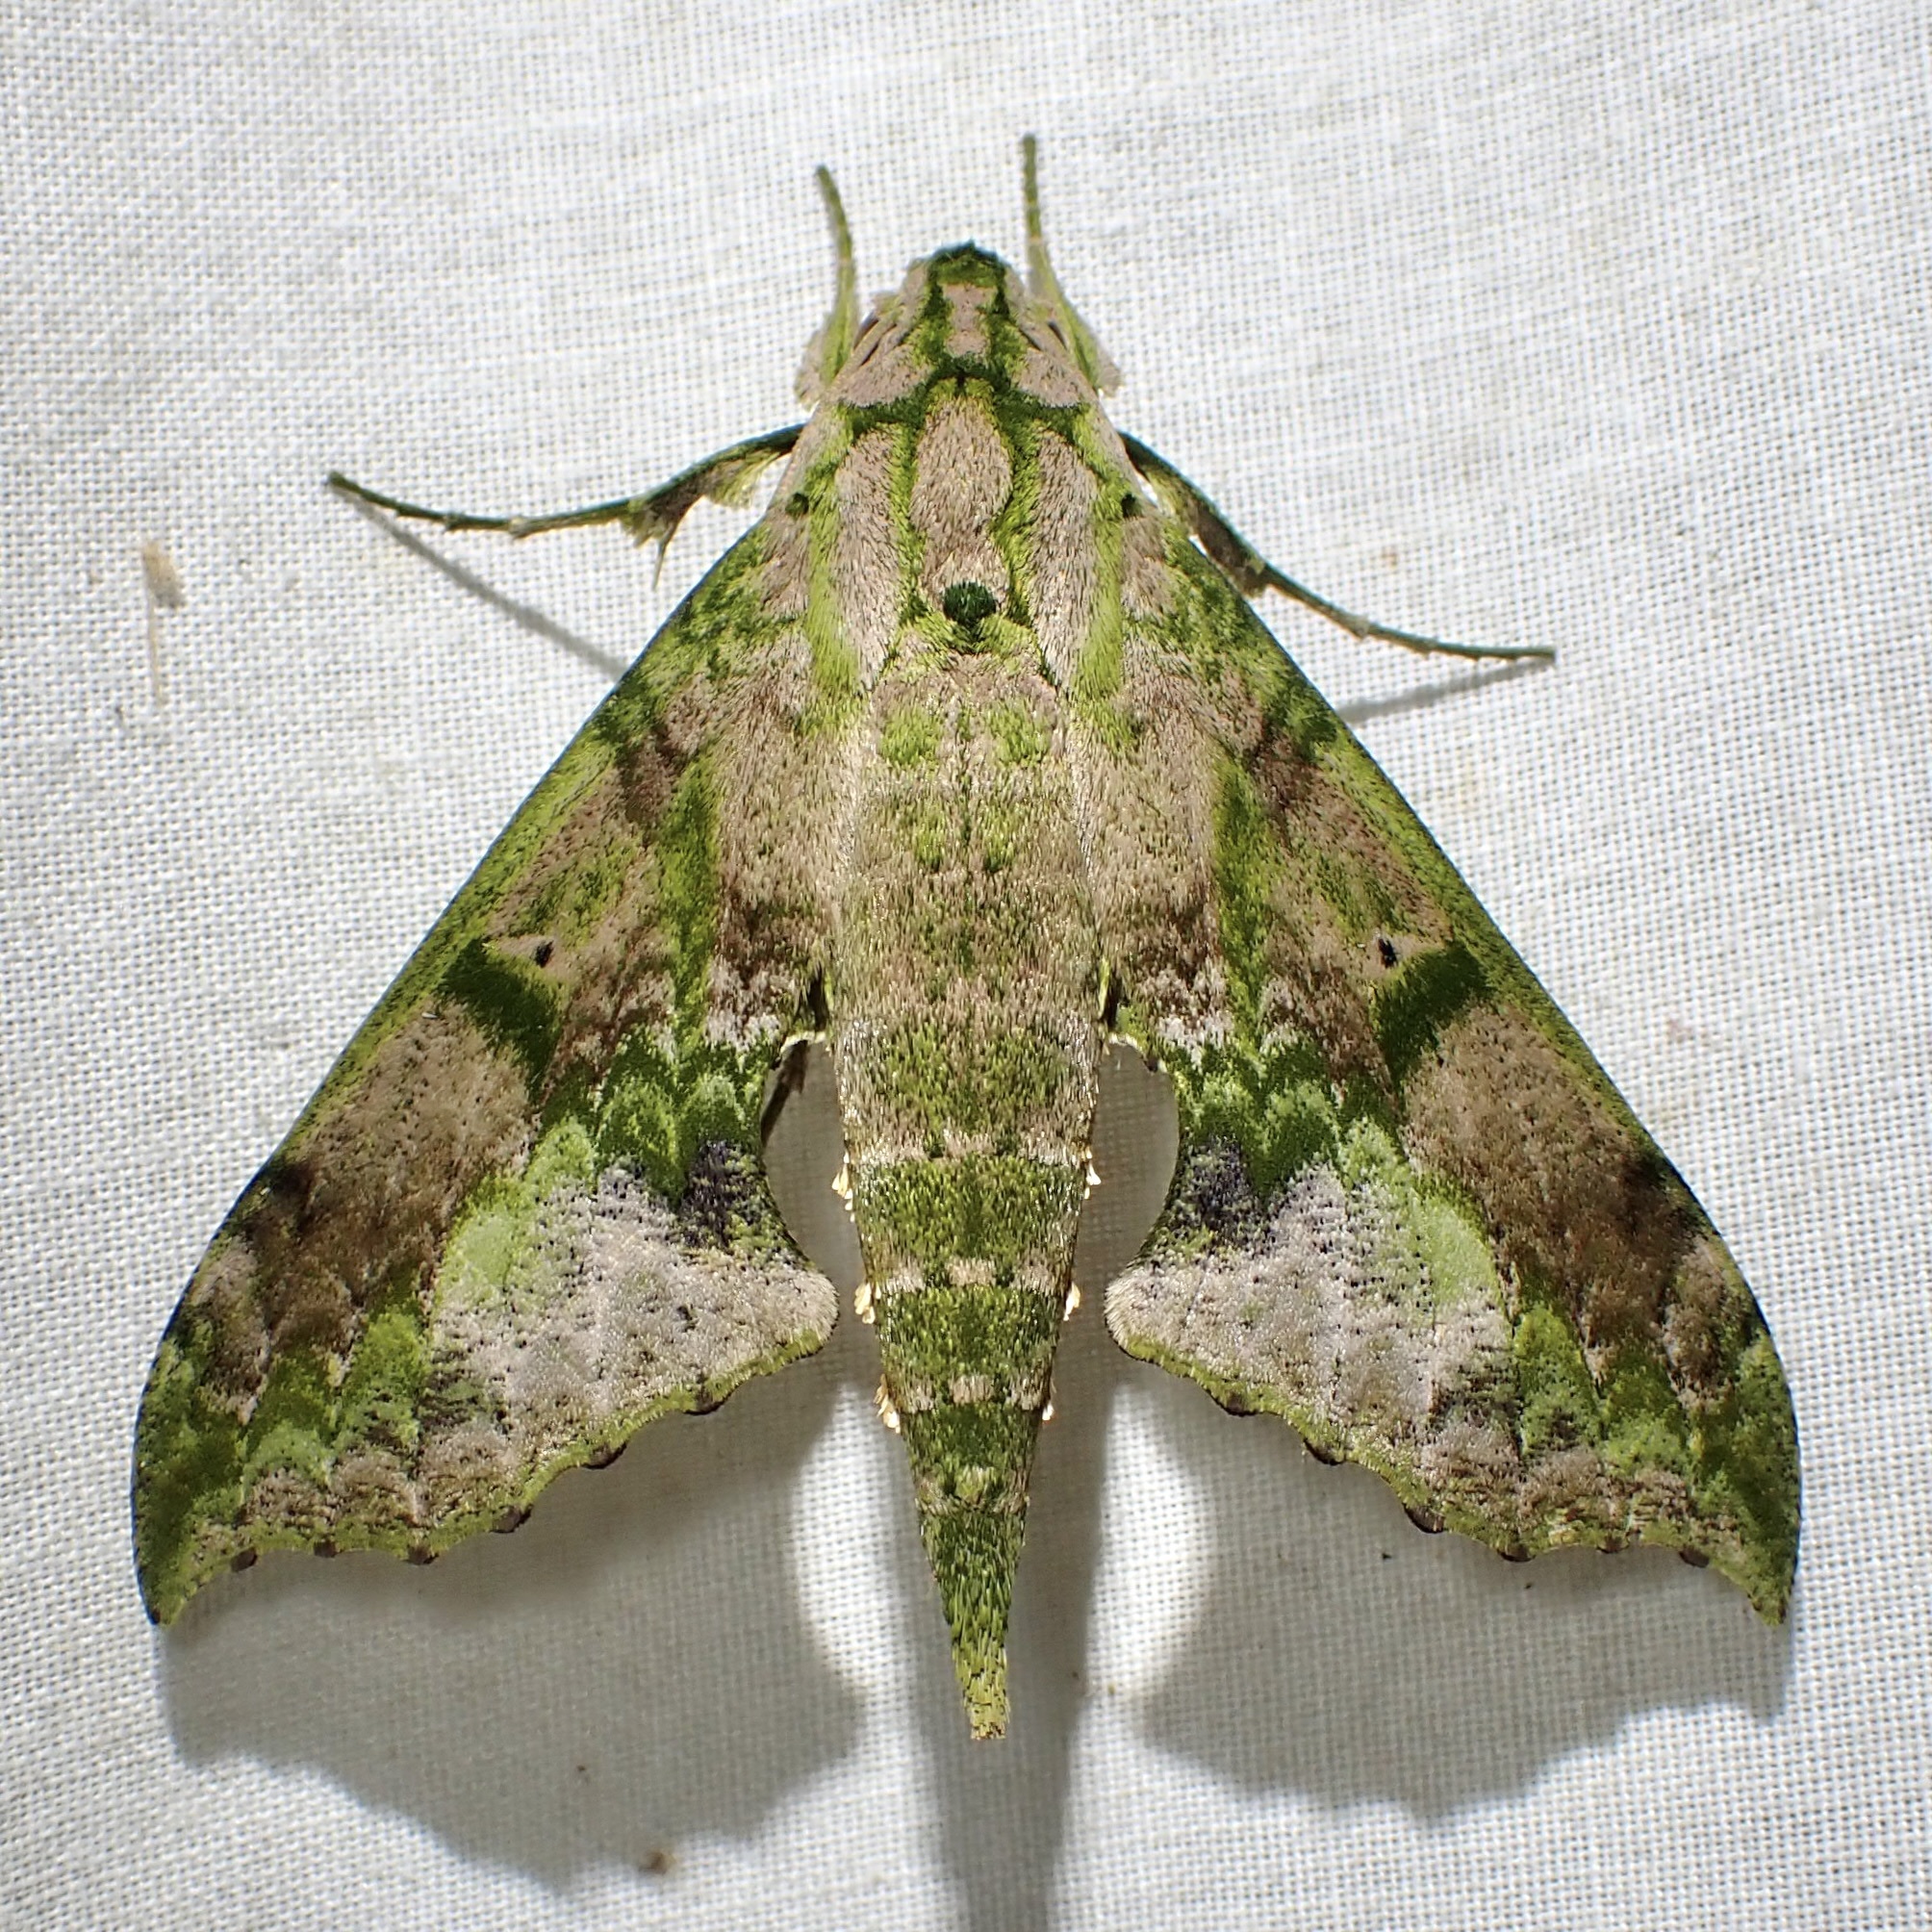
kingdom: Animalia
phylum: Arthropoda
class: Insecta
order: Lepidoptera
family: Sphingidae
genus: Xylophanes
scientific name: Xylophanes zurcheri
